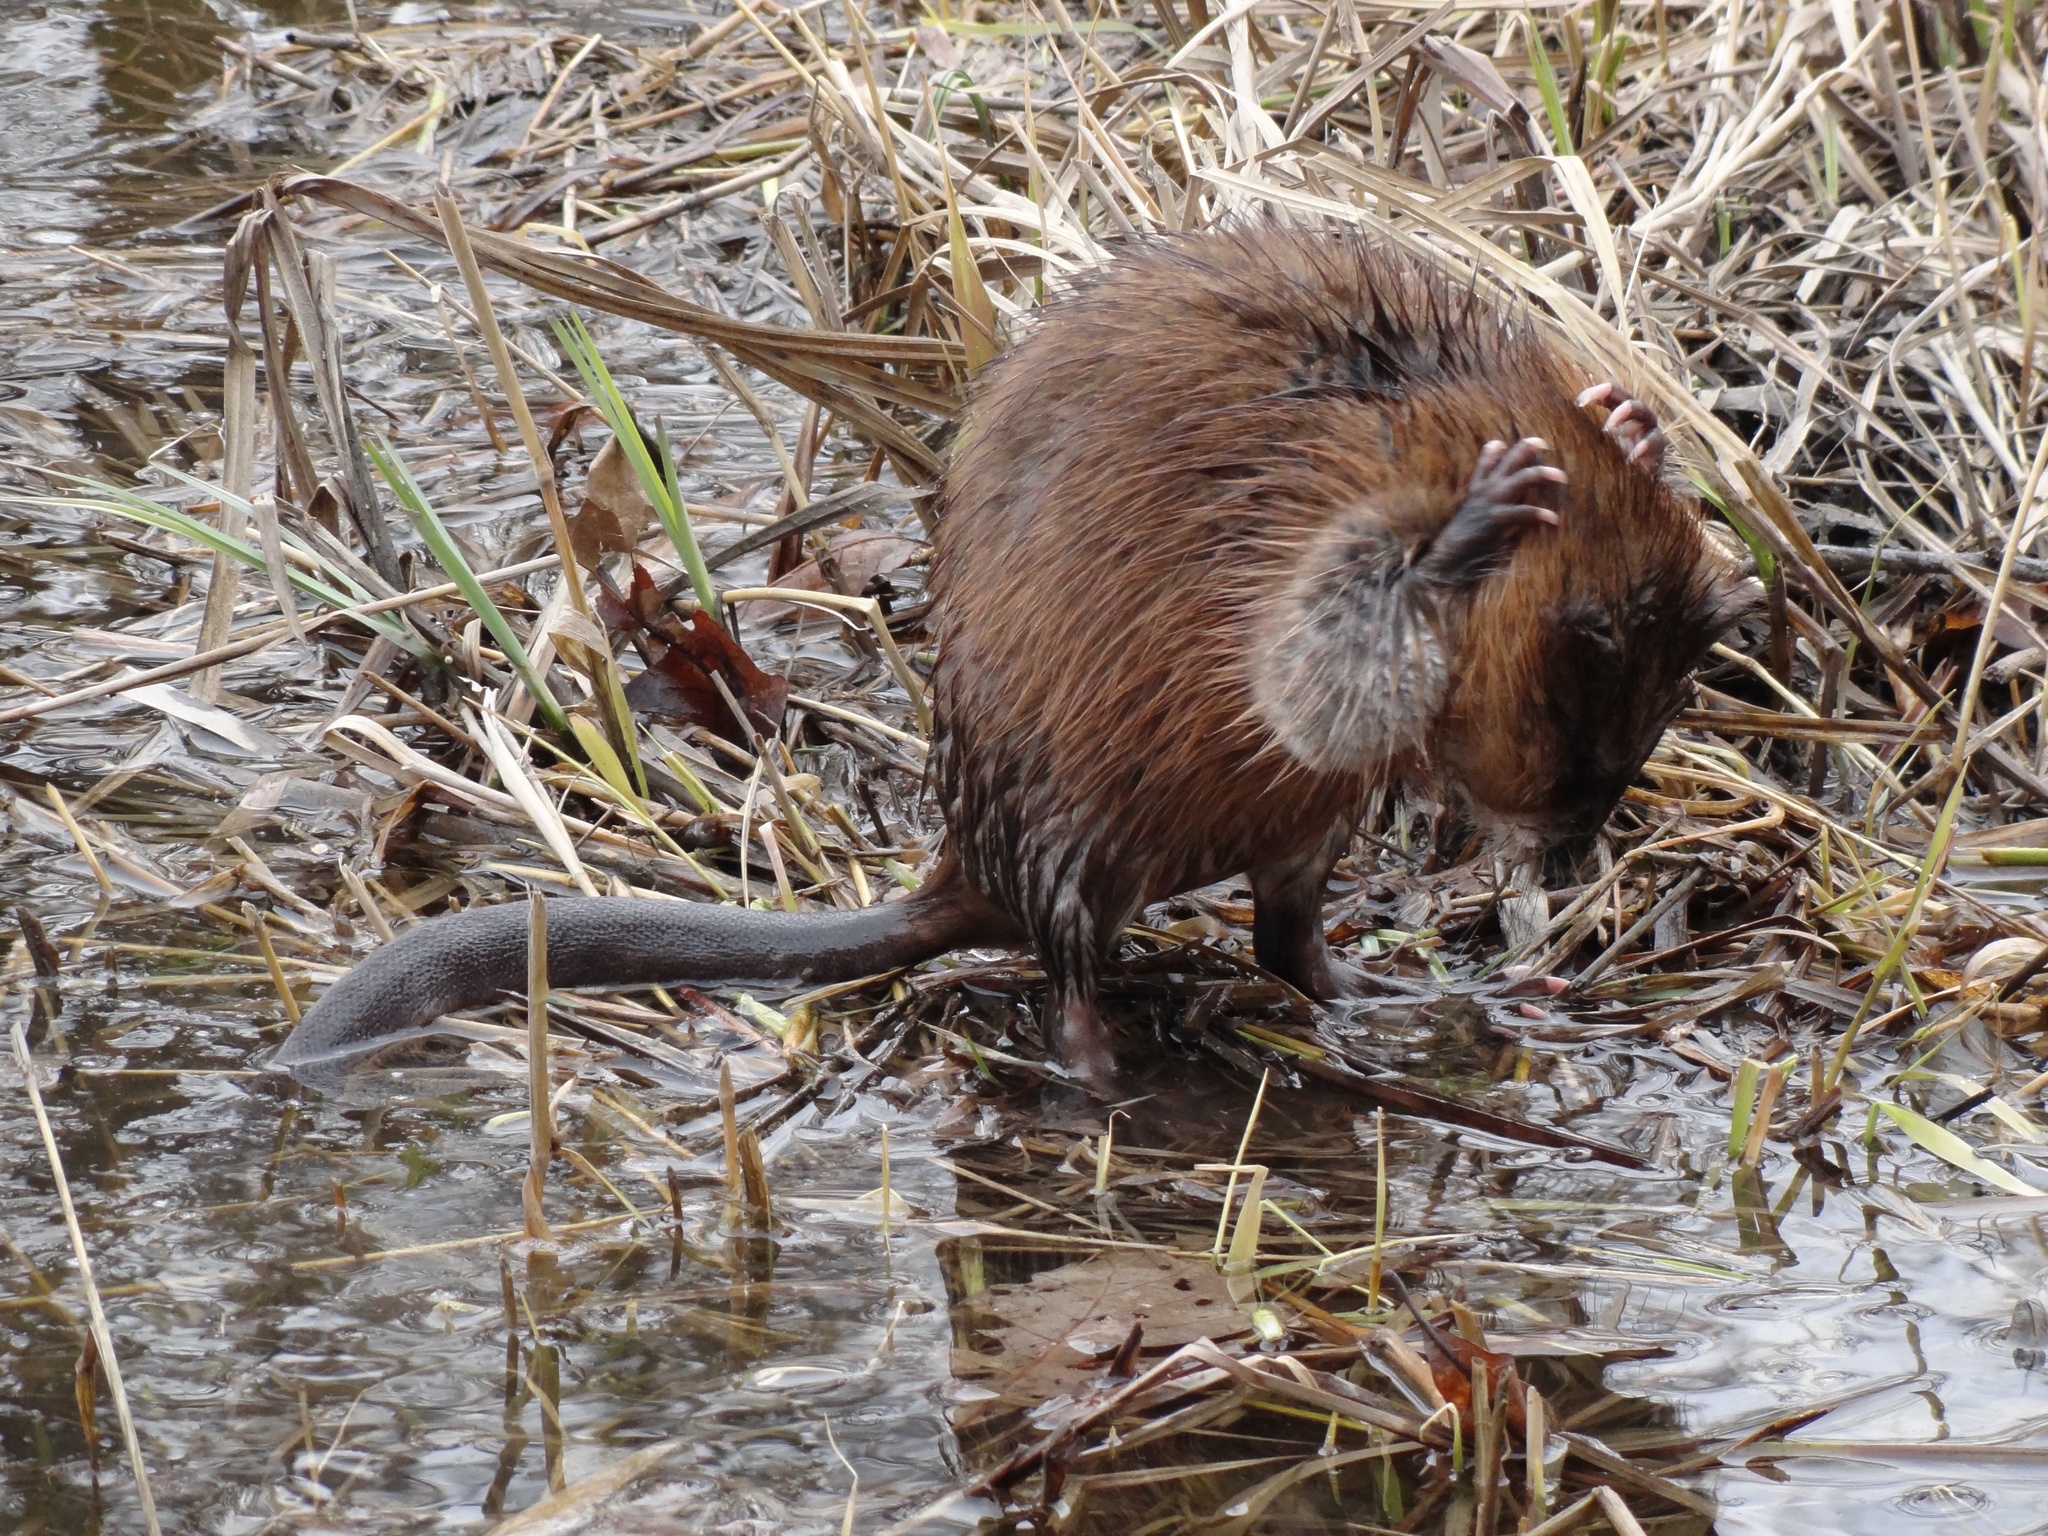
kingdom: Animalia
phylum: Chordata
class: Mammalia
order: Rodentia
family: Cricetidae
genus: Ondatra
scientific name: Ondatra zibethicus
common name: Muskrat
